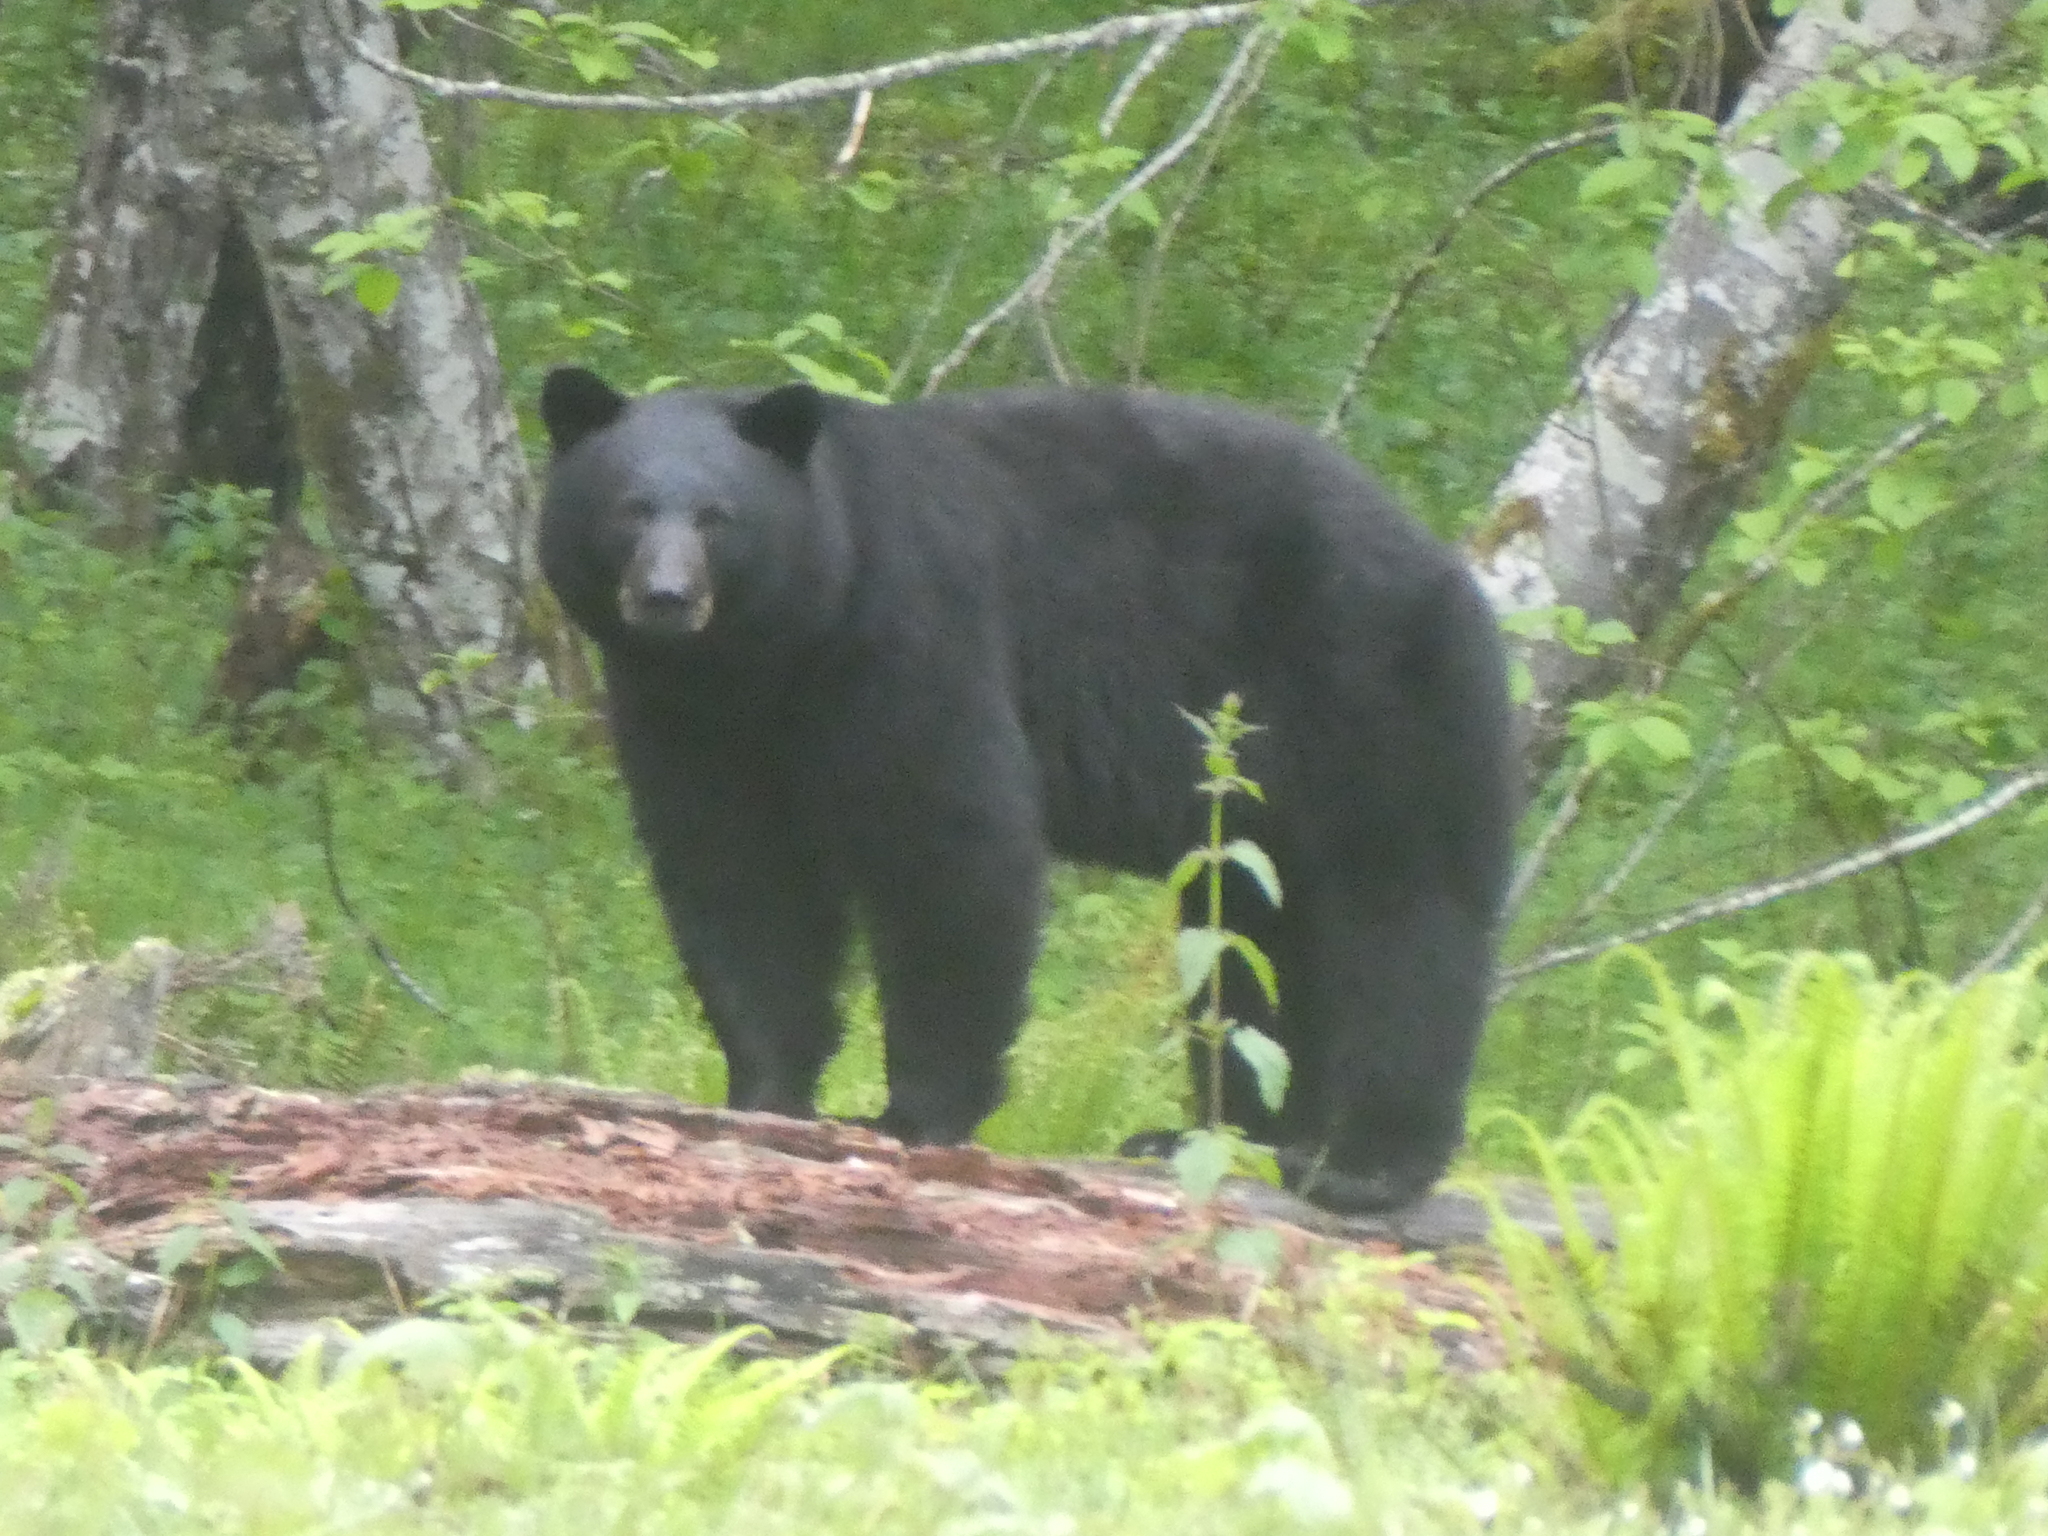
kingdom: Animalia
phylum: Chordata
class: Mammalia
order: Carnivora
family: Ursidae
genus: Ursus
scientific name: Ursus americanus
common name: American black bear
